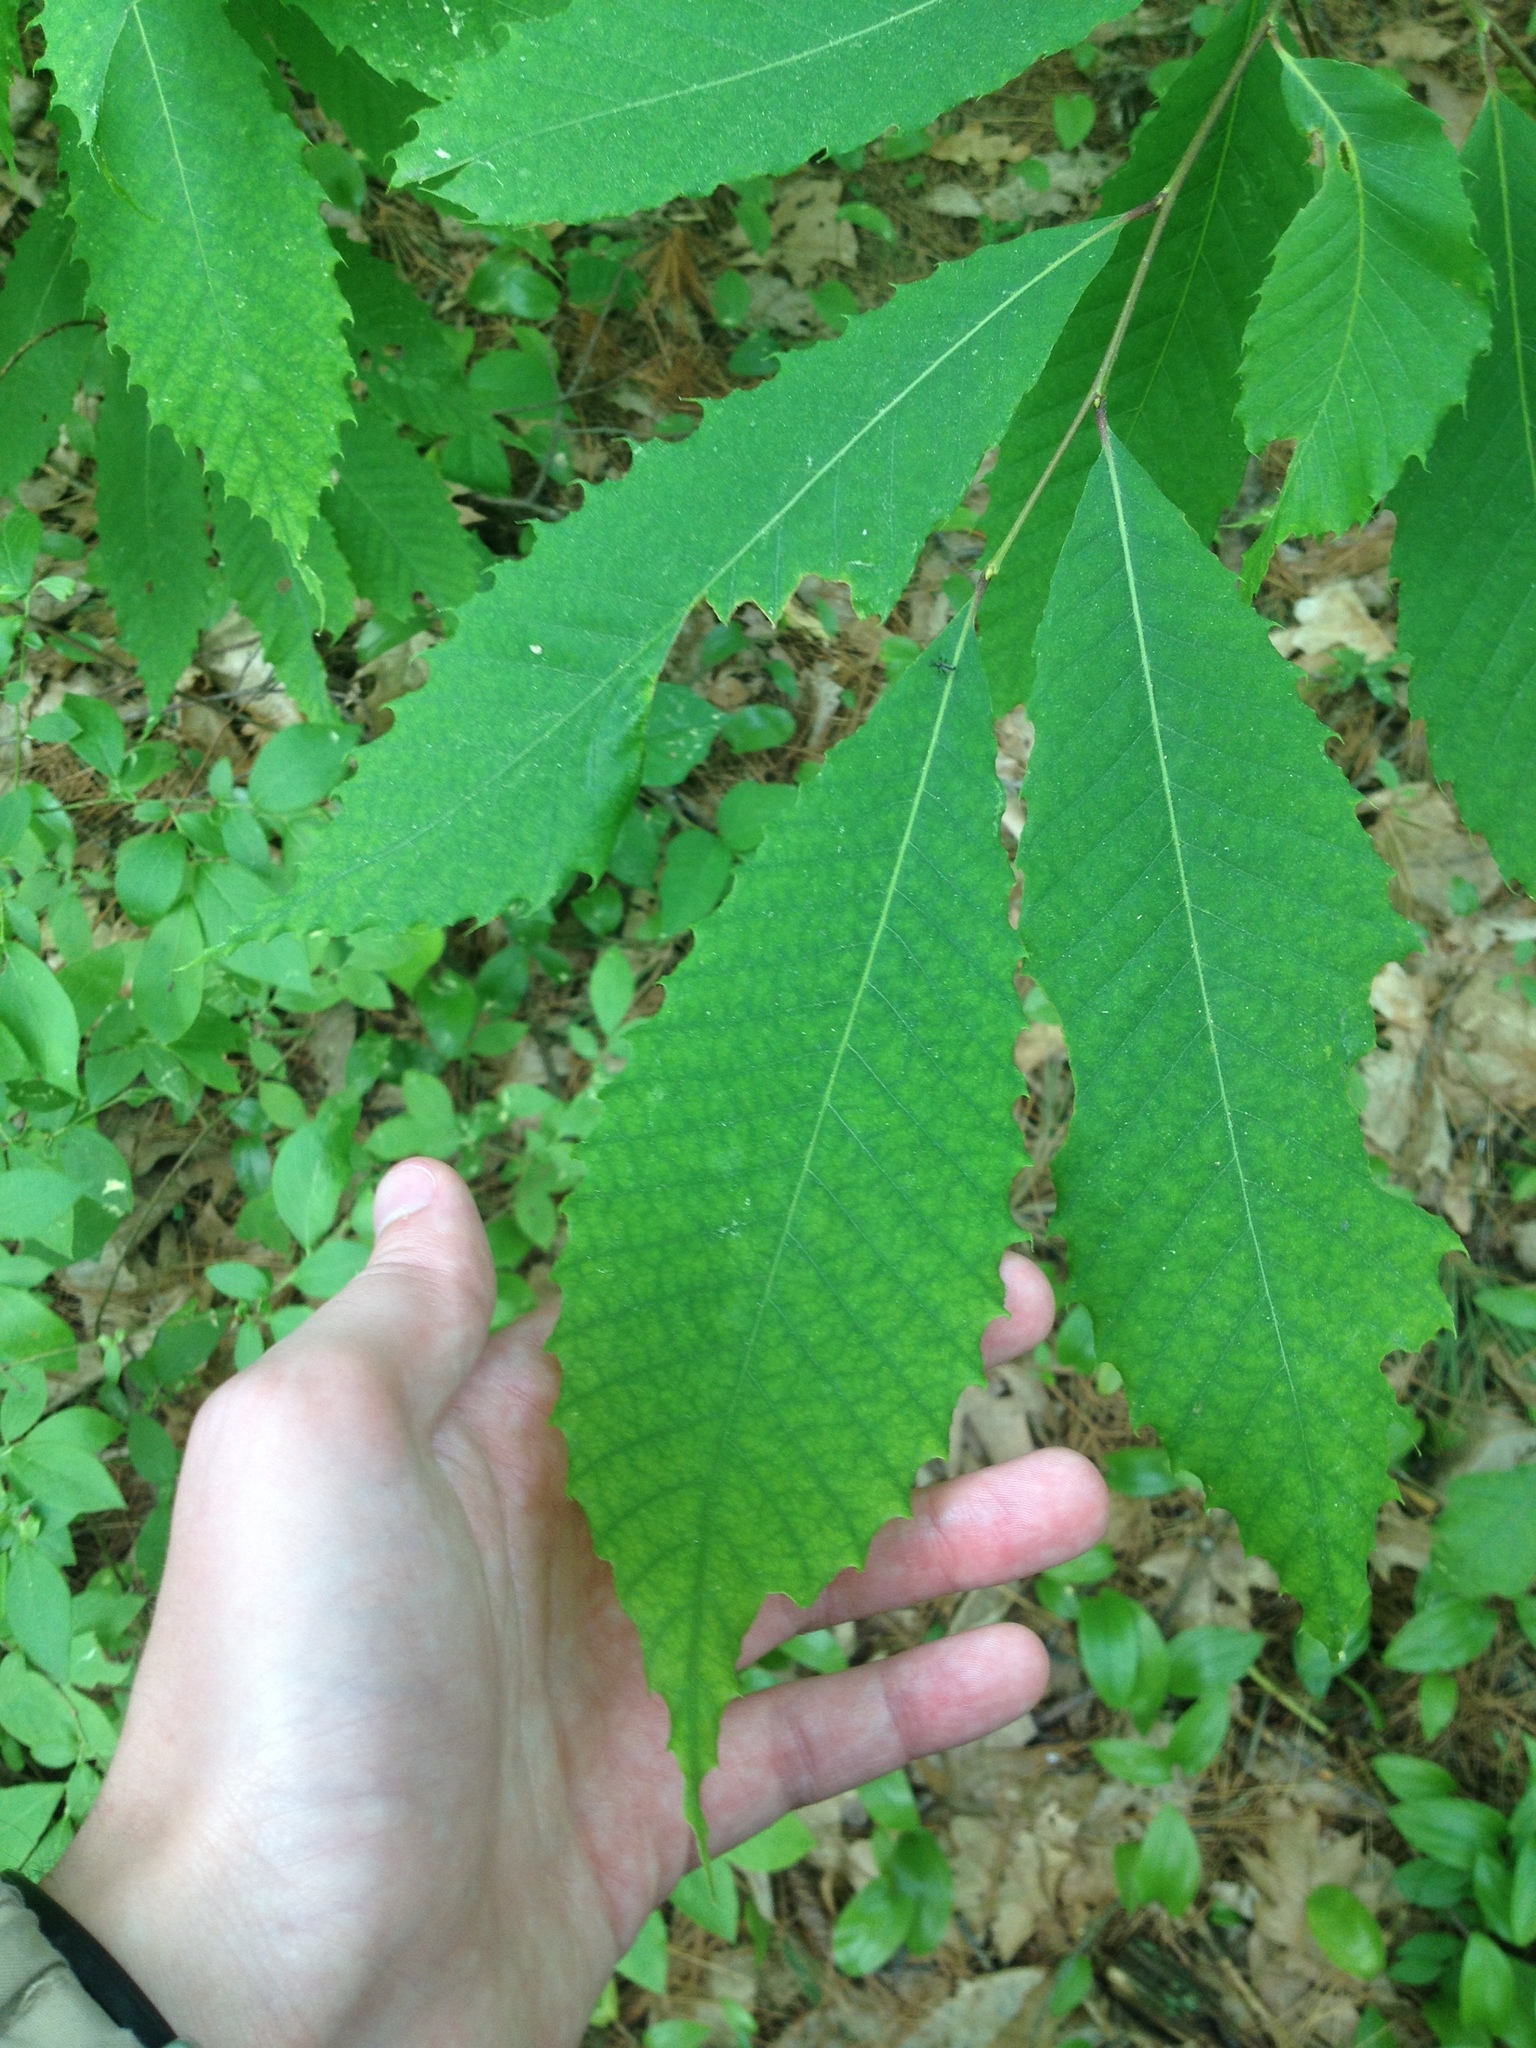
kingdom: Plantae
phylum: Tracheophyta
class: Magnoliopsida
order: Fagales
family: Fagaceae
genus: Castanea
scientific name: Castanea dentata
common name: American chestnut
